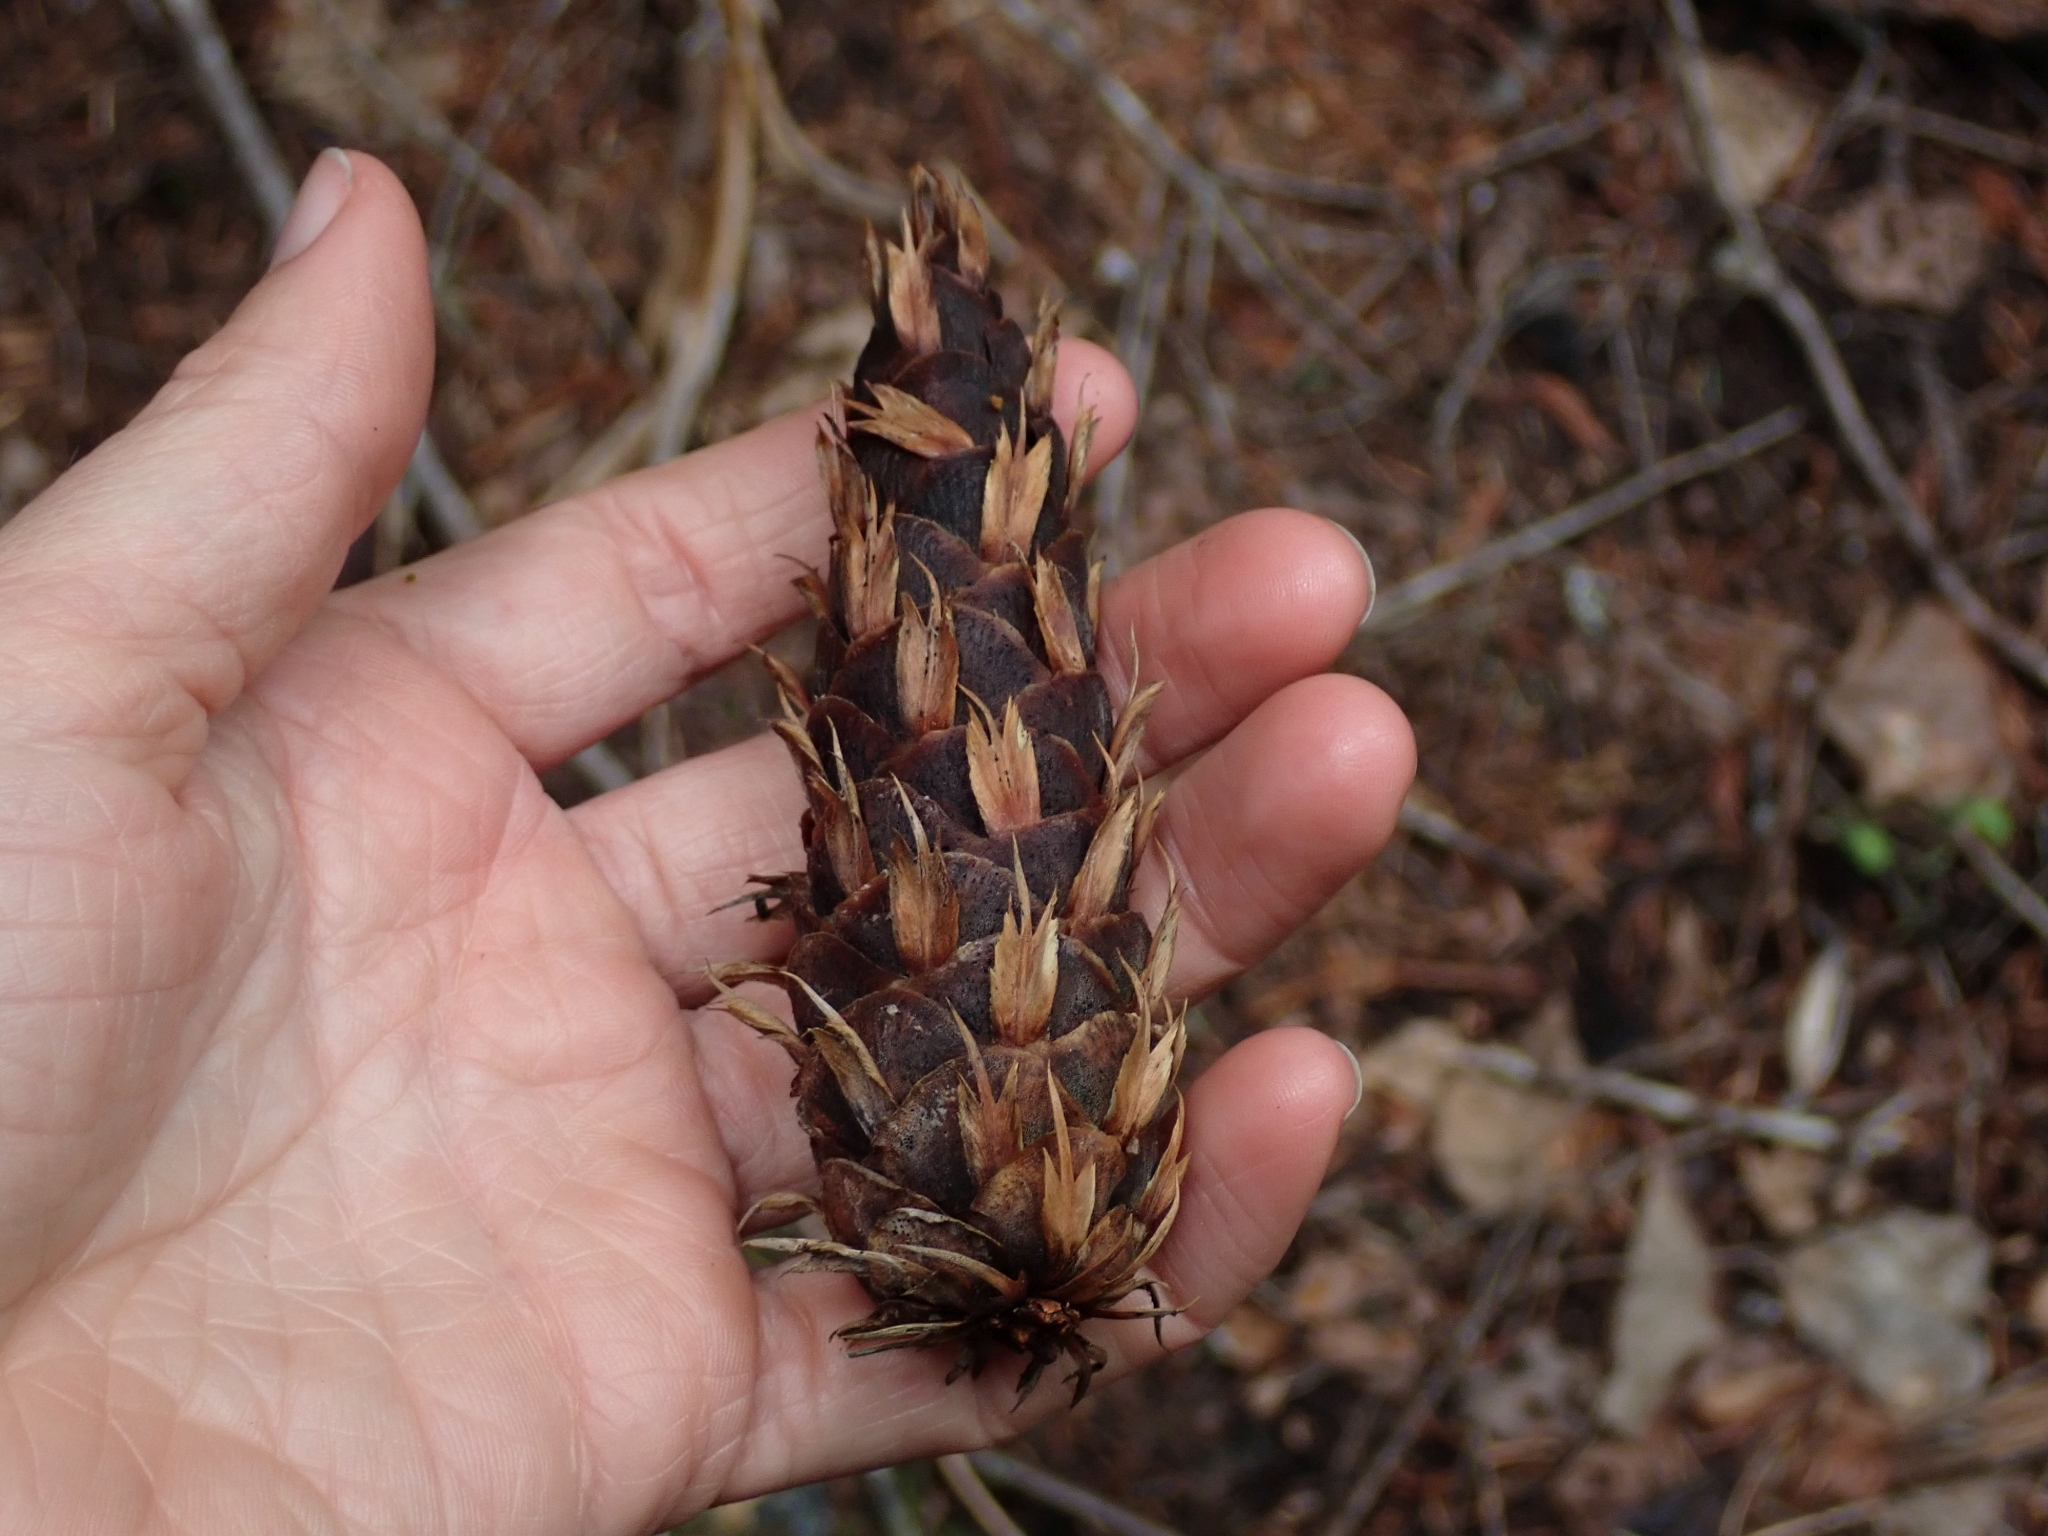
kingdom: Plantae
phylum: Tracheophyta
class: Pinopsida
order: Pinales
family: Pinaceae
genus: Pseudotsuga
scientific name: Pseudotsuga menziesii
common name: Douglas fir
